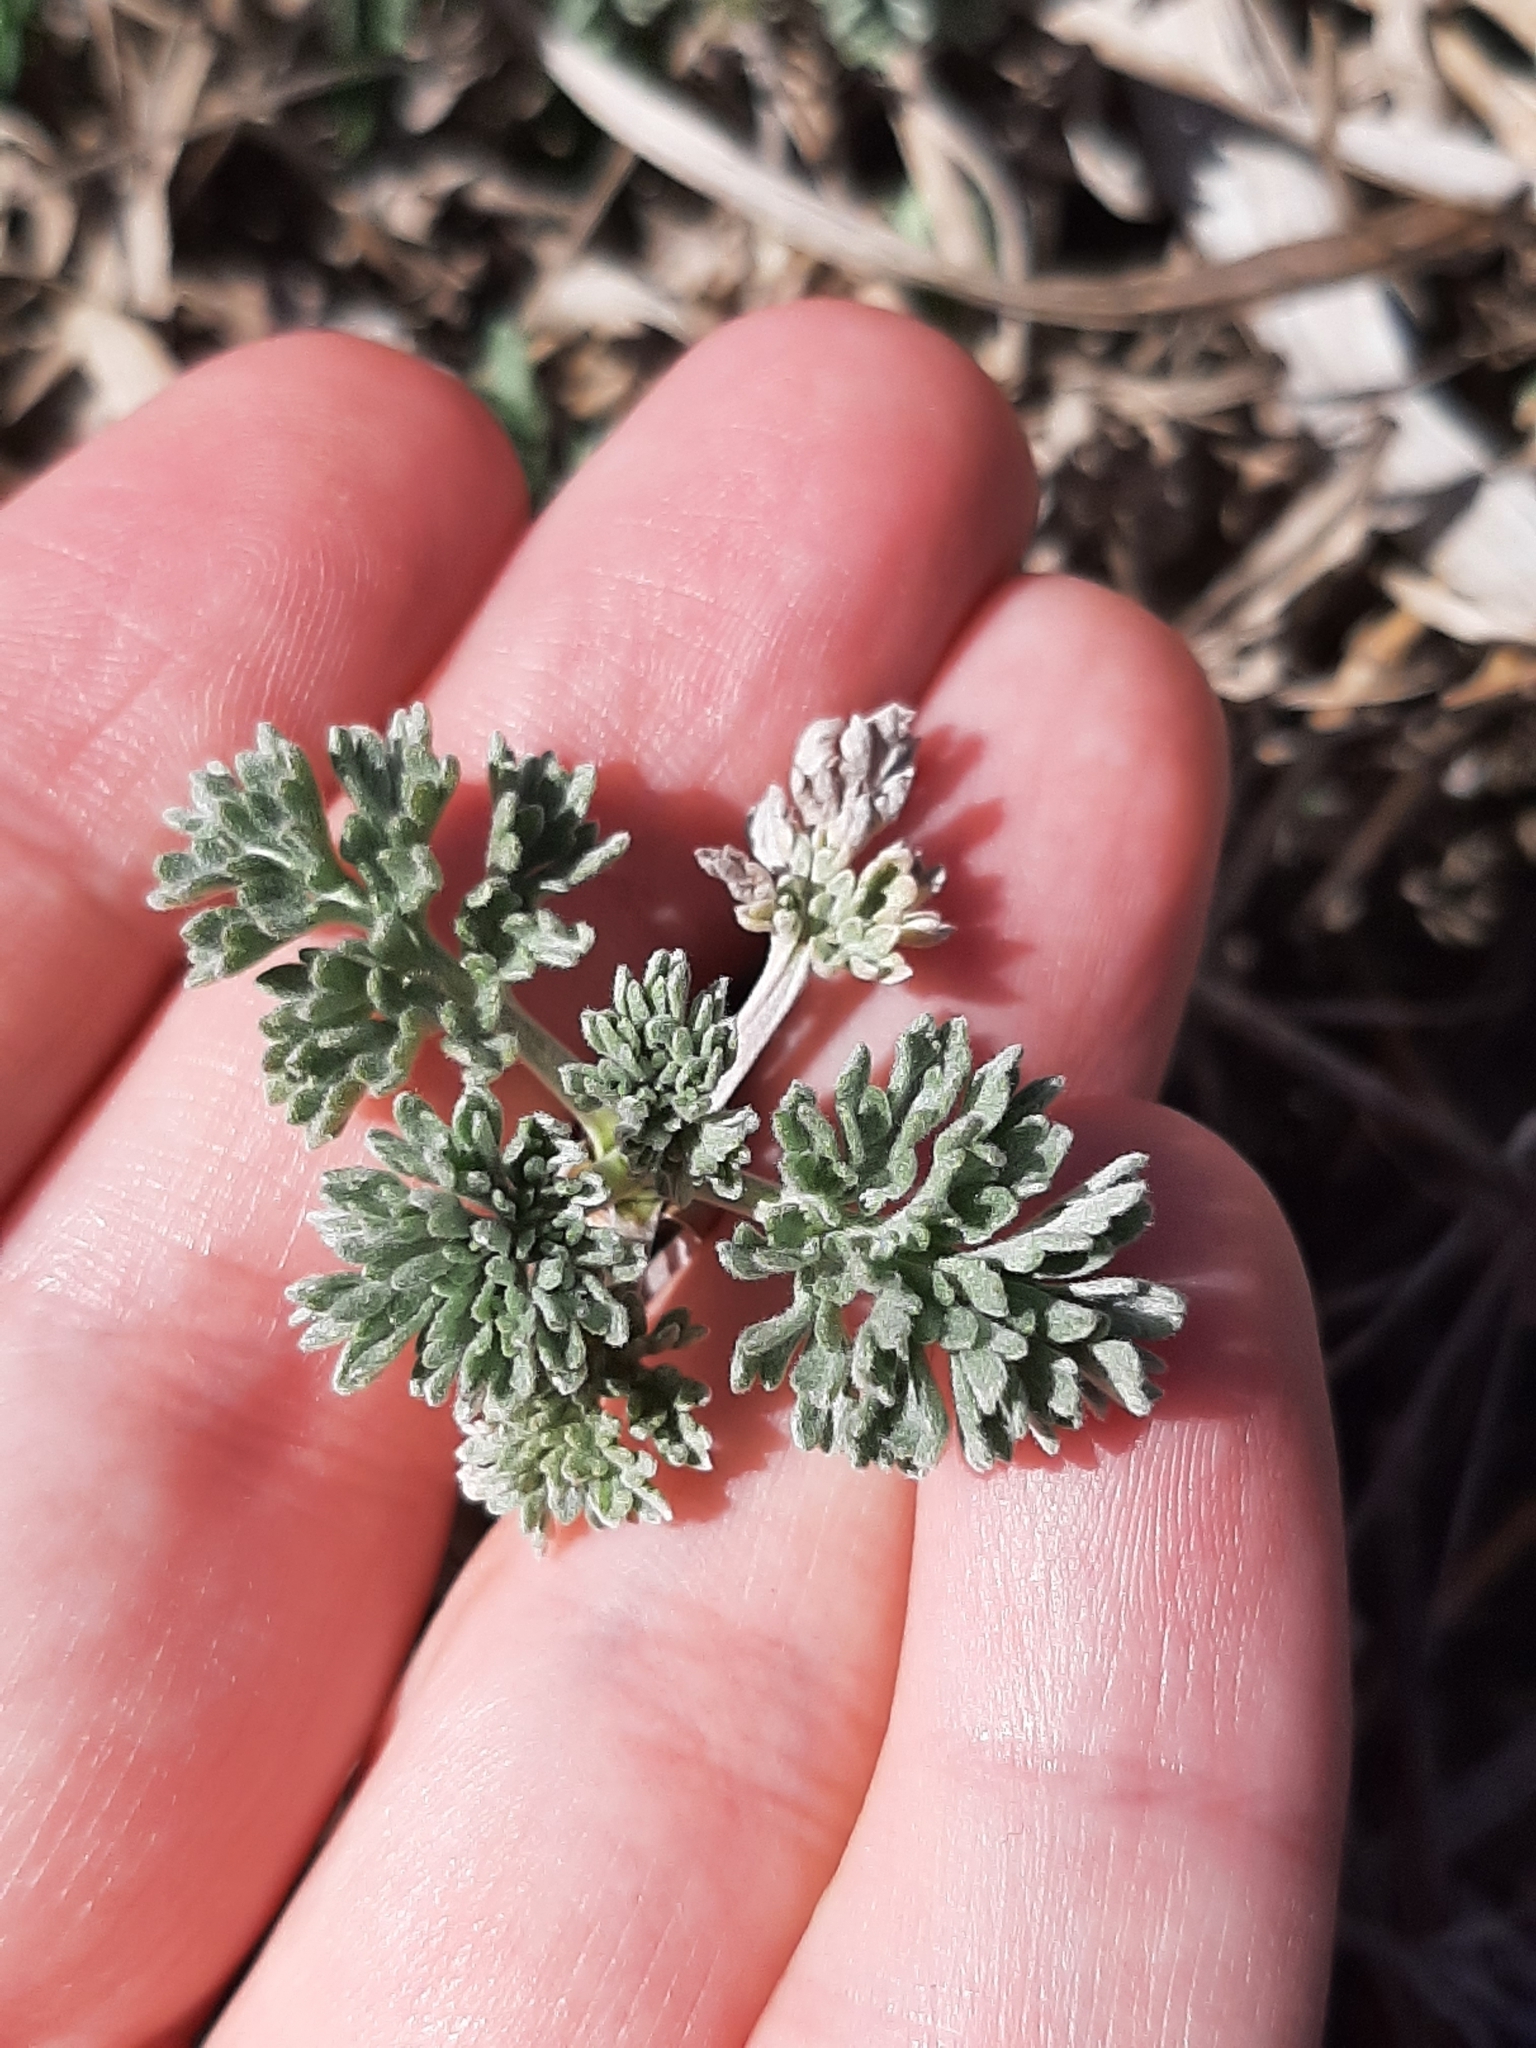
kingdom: Plantae
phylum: Tracheophyta
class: Magnoliopsida
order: Asterales
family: Asteraceae
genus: Artemisia
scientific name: Artemisia absinthium
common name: Wormwood
